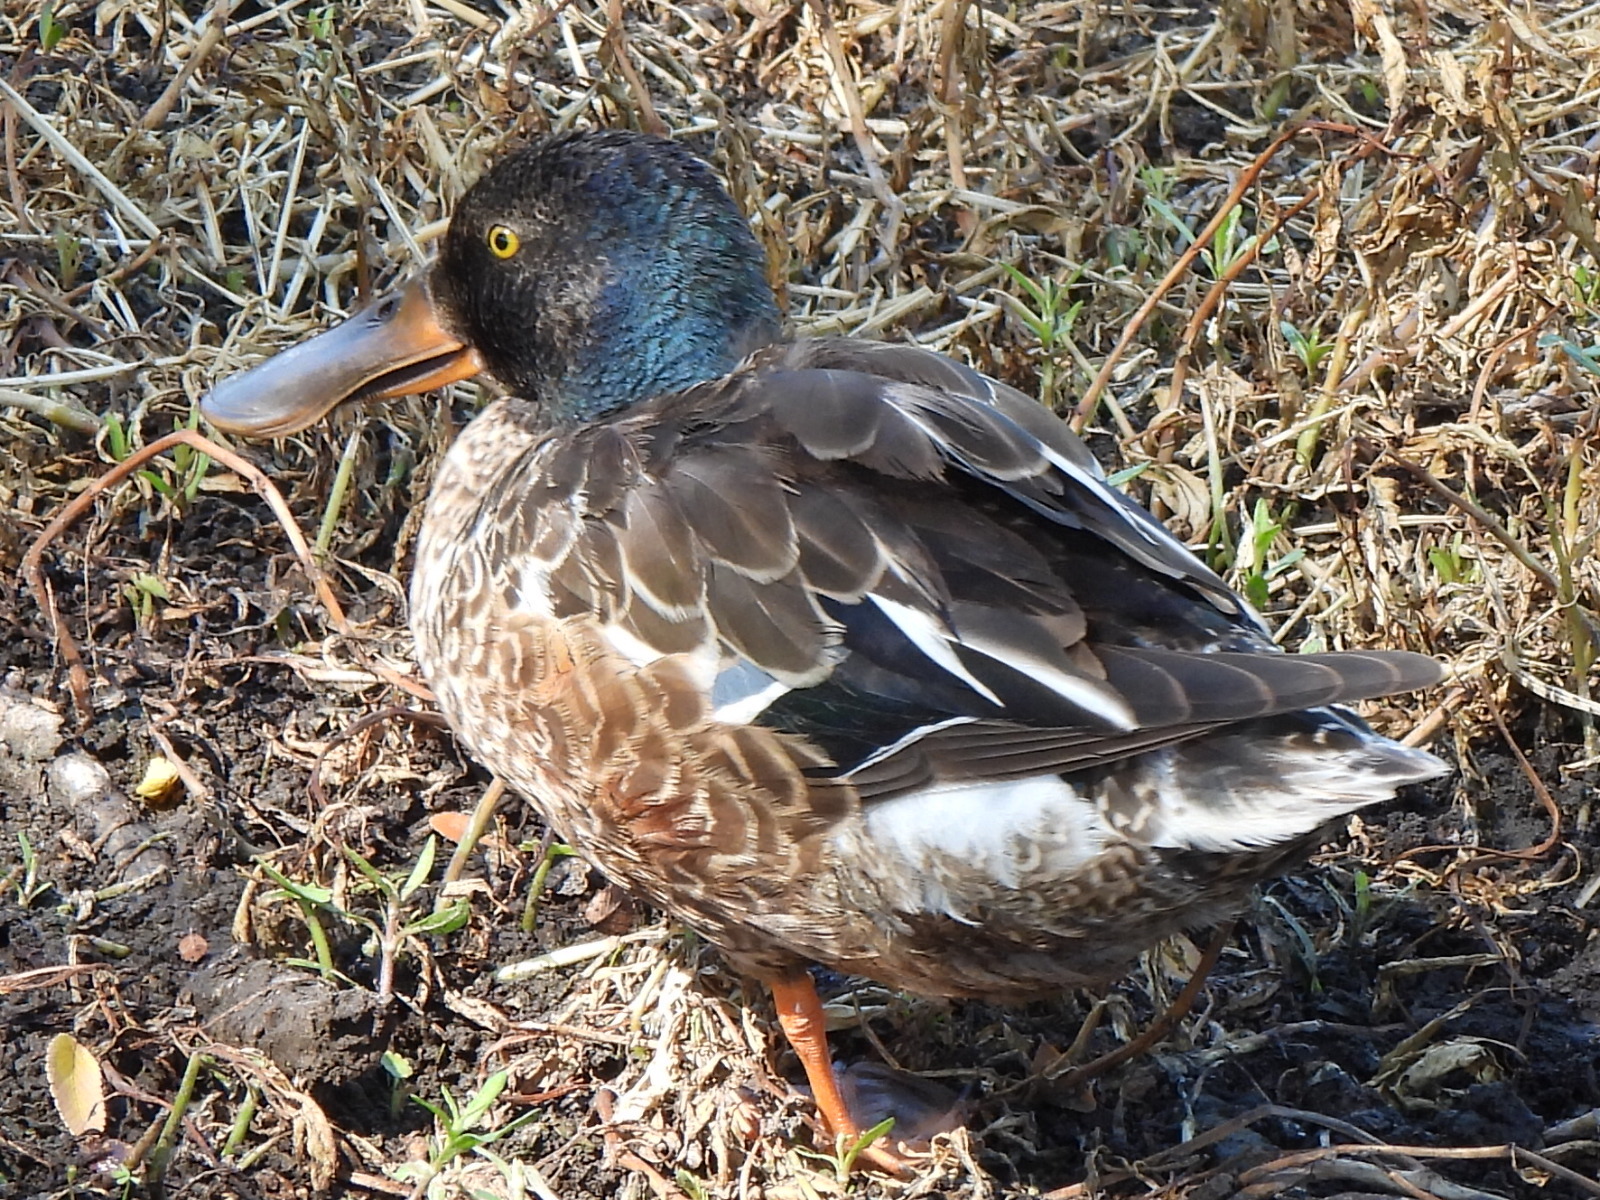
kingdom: Animalia
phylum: Chordata
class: Aves
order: Anseriformes
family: Anatidae
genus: Spatula
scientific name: Spatula clypeata
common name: Northern shoveler
